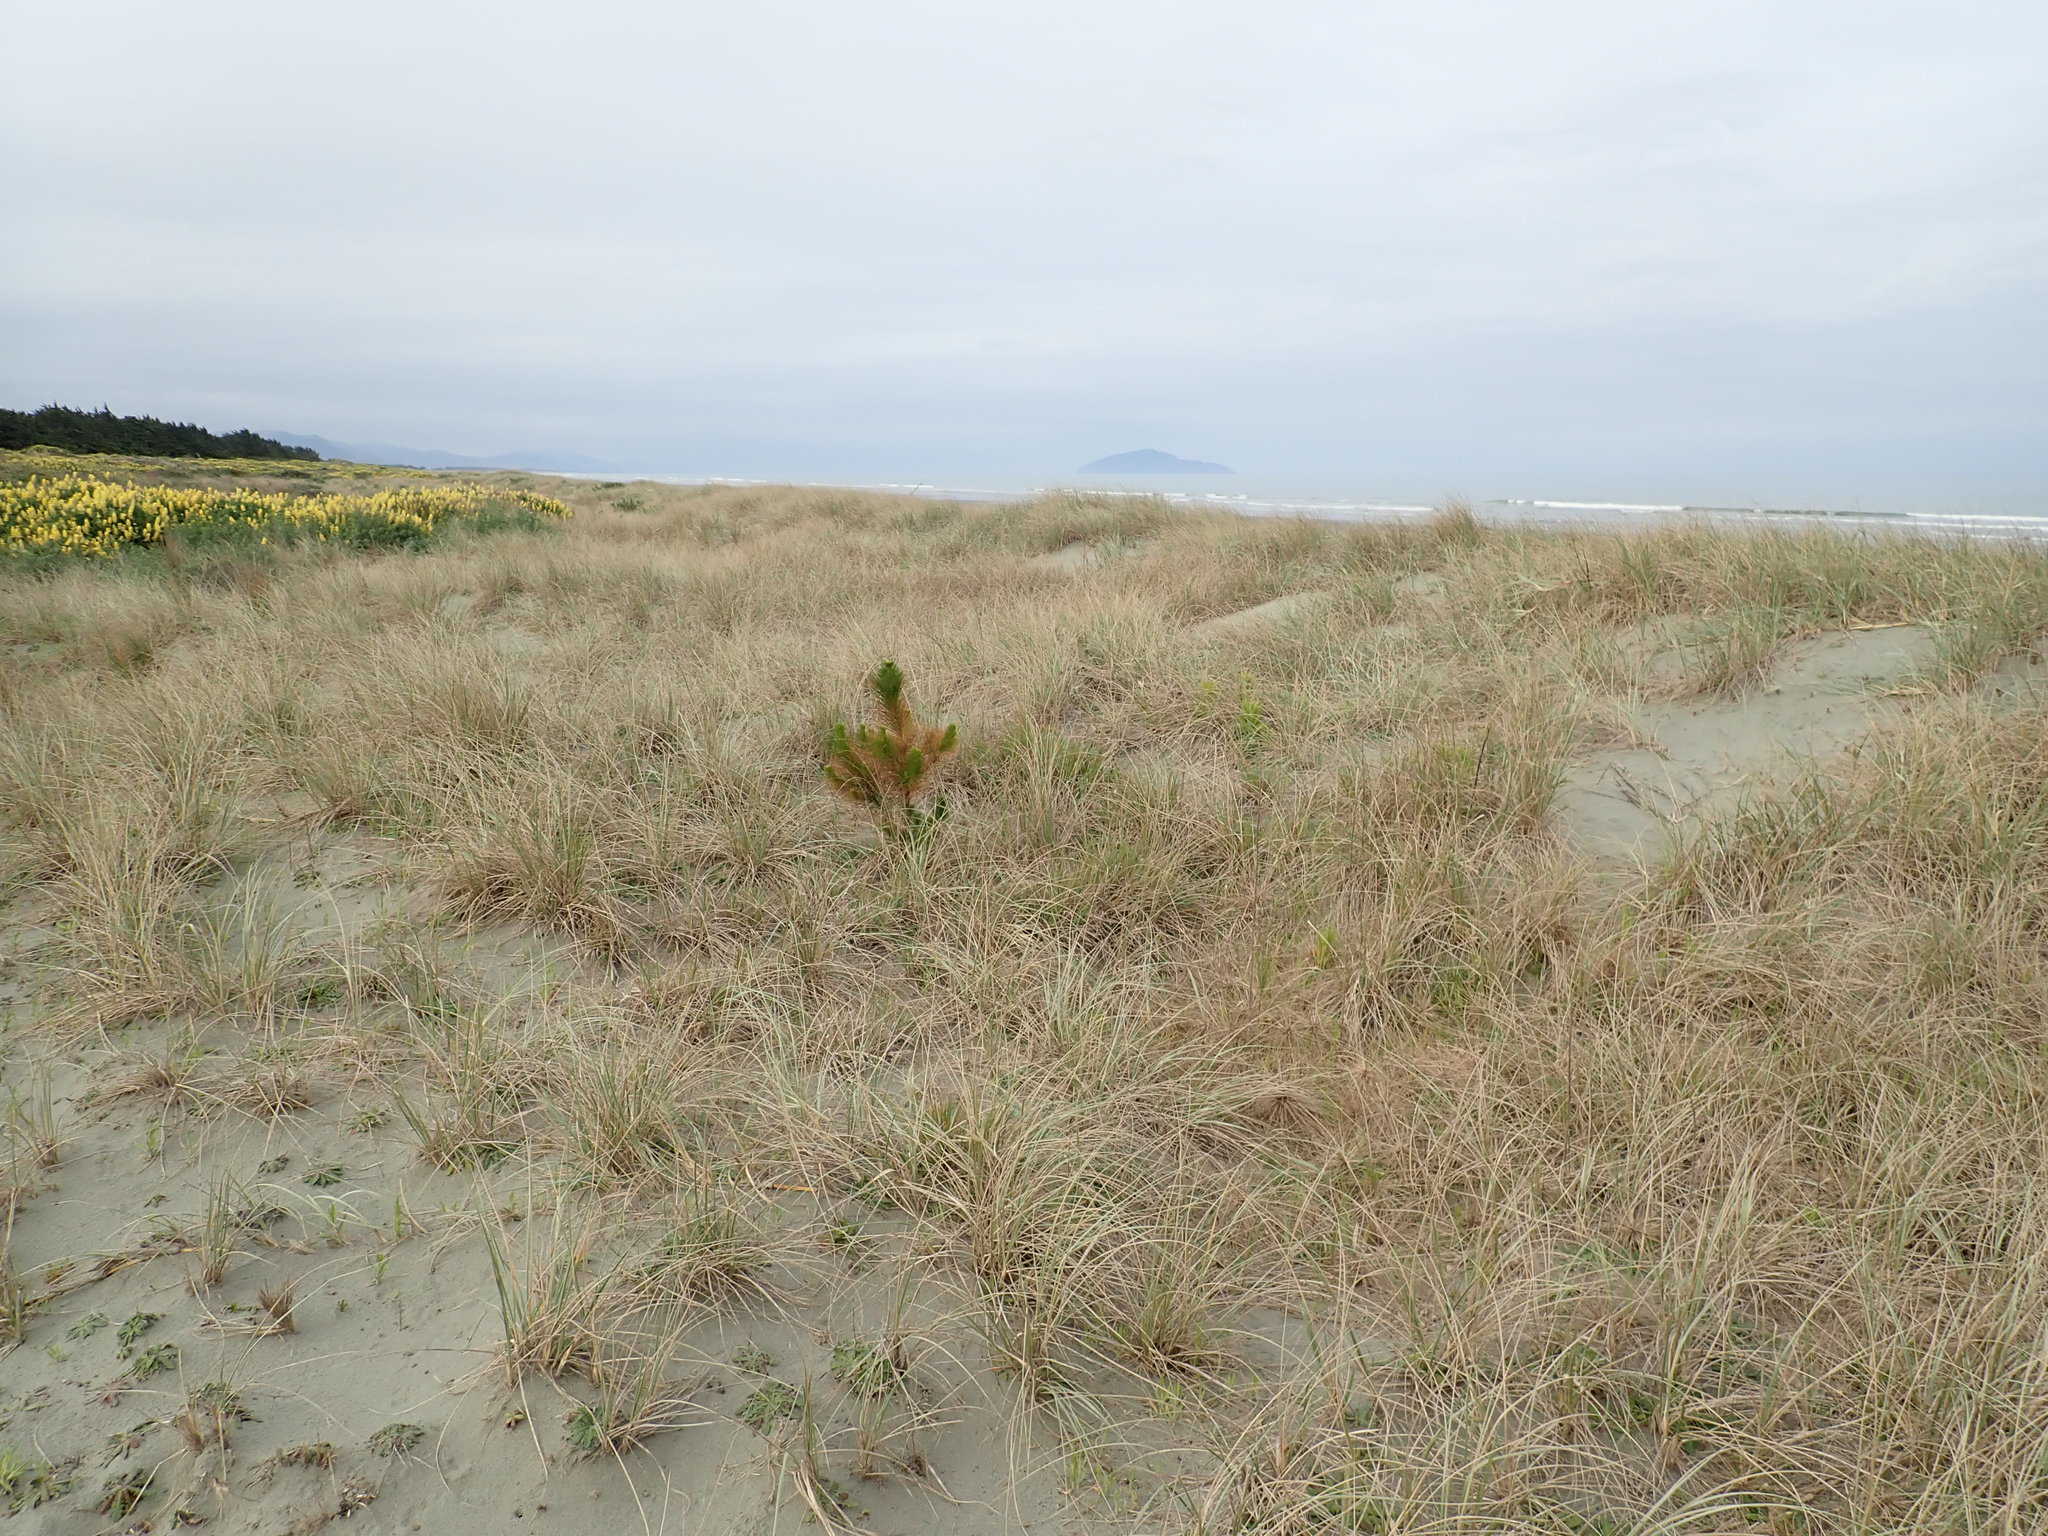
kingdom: Plantae
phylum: Tracheophyta
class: Pinopsida
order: Pinales
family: Pinaceae
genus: Pinus
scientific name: Pinus radiata
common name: Monterey pine
